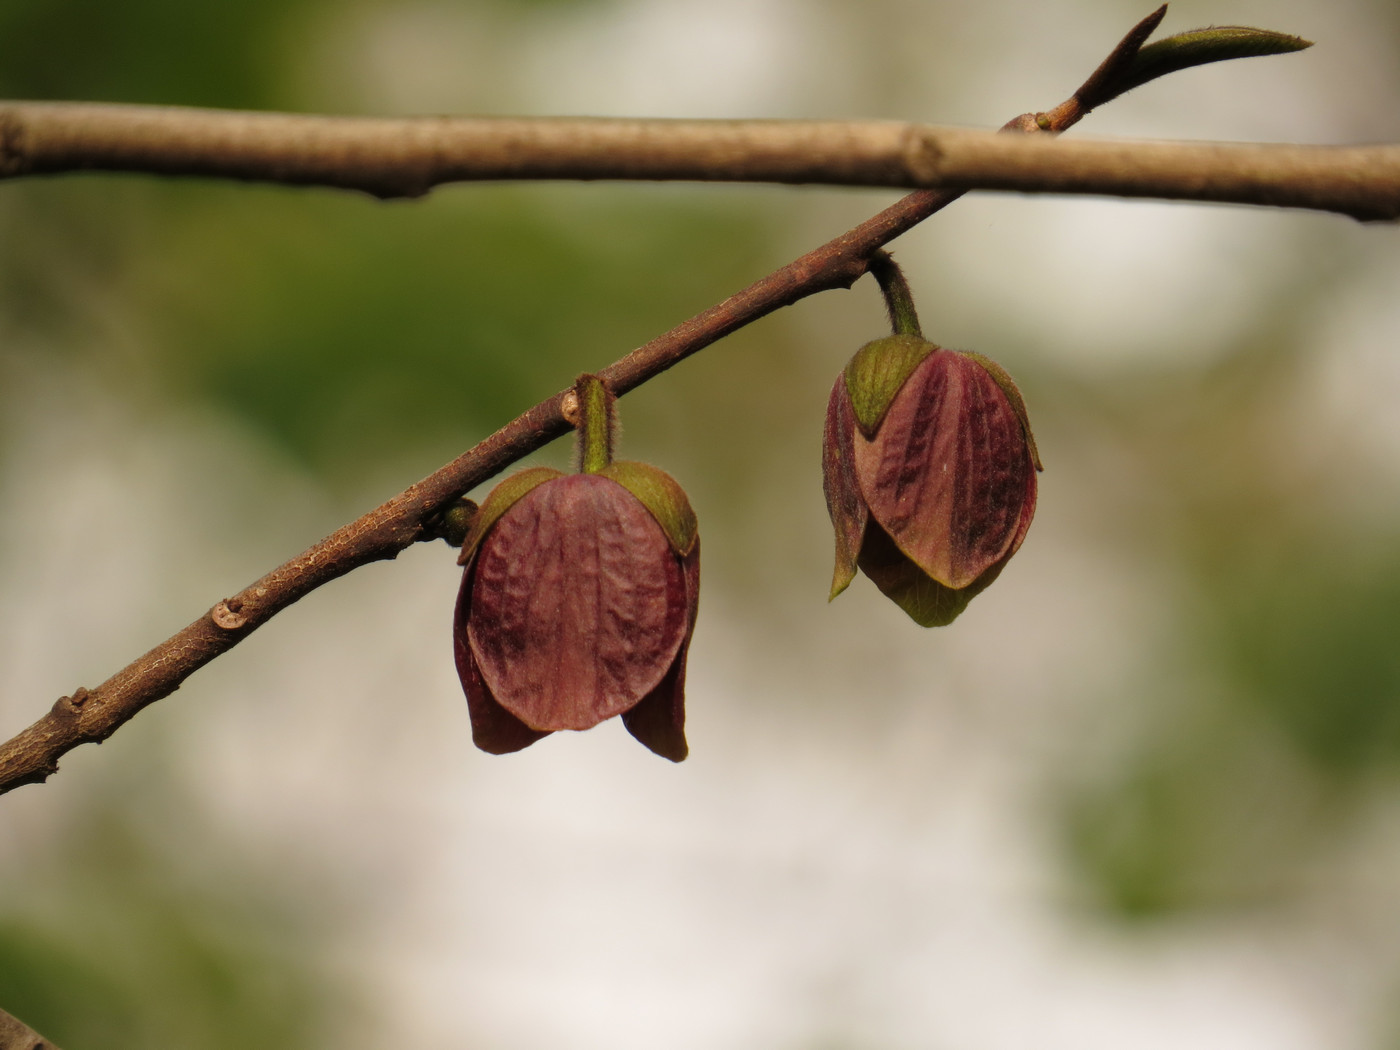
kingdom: Plantae
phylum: Tracheophyta
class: Magnoliopsida
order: Magnoliales
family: Annonaceae
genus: Asimina
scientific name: Asimina triloba
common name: Dog-banana
